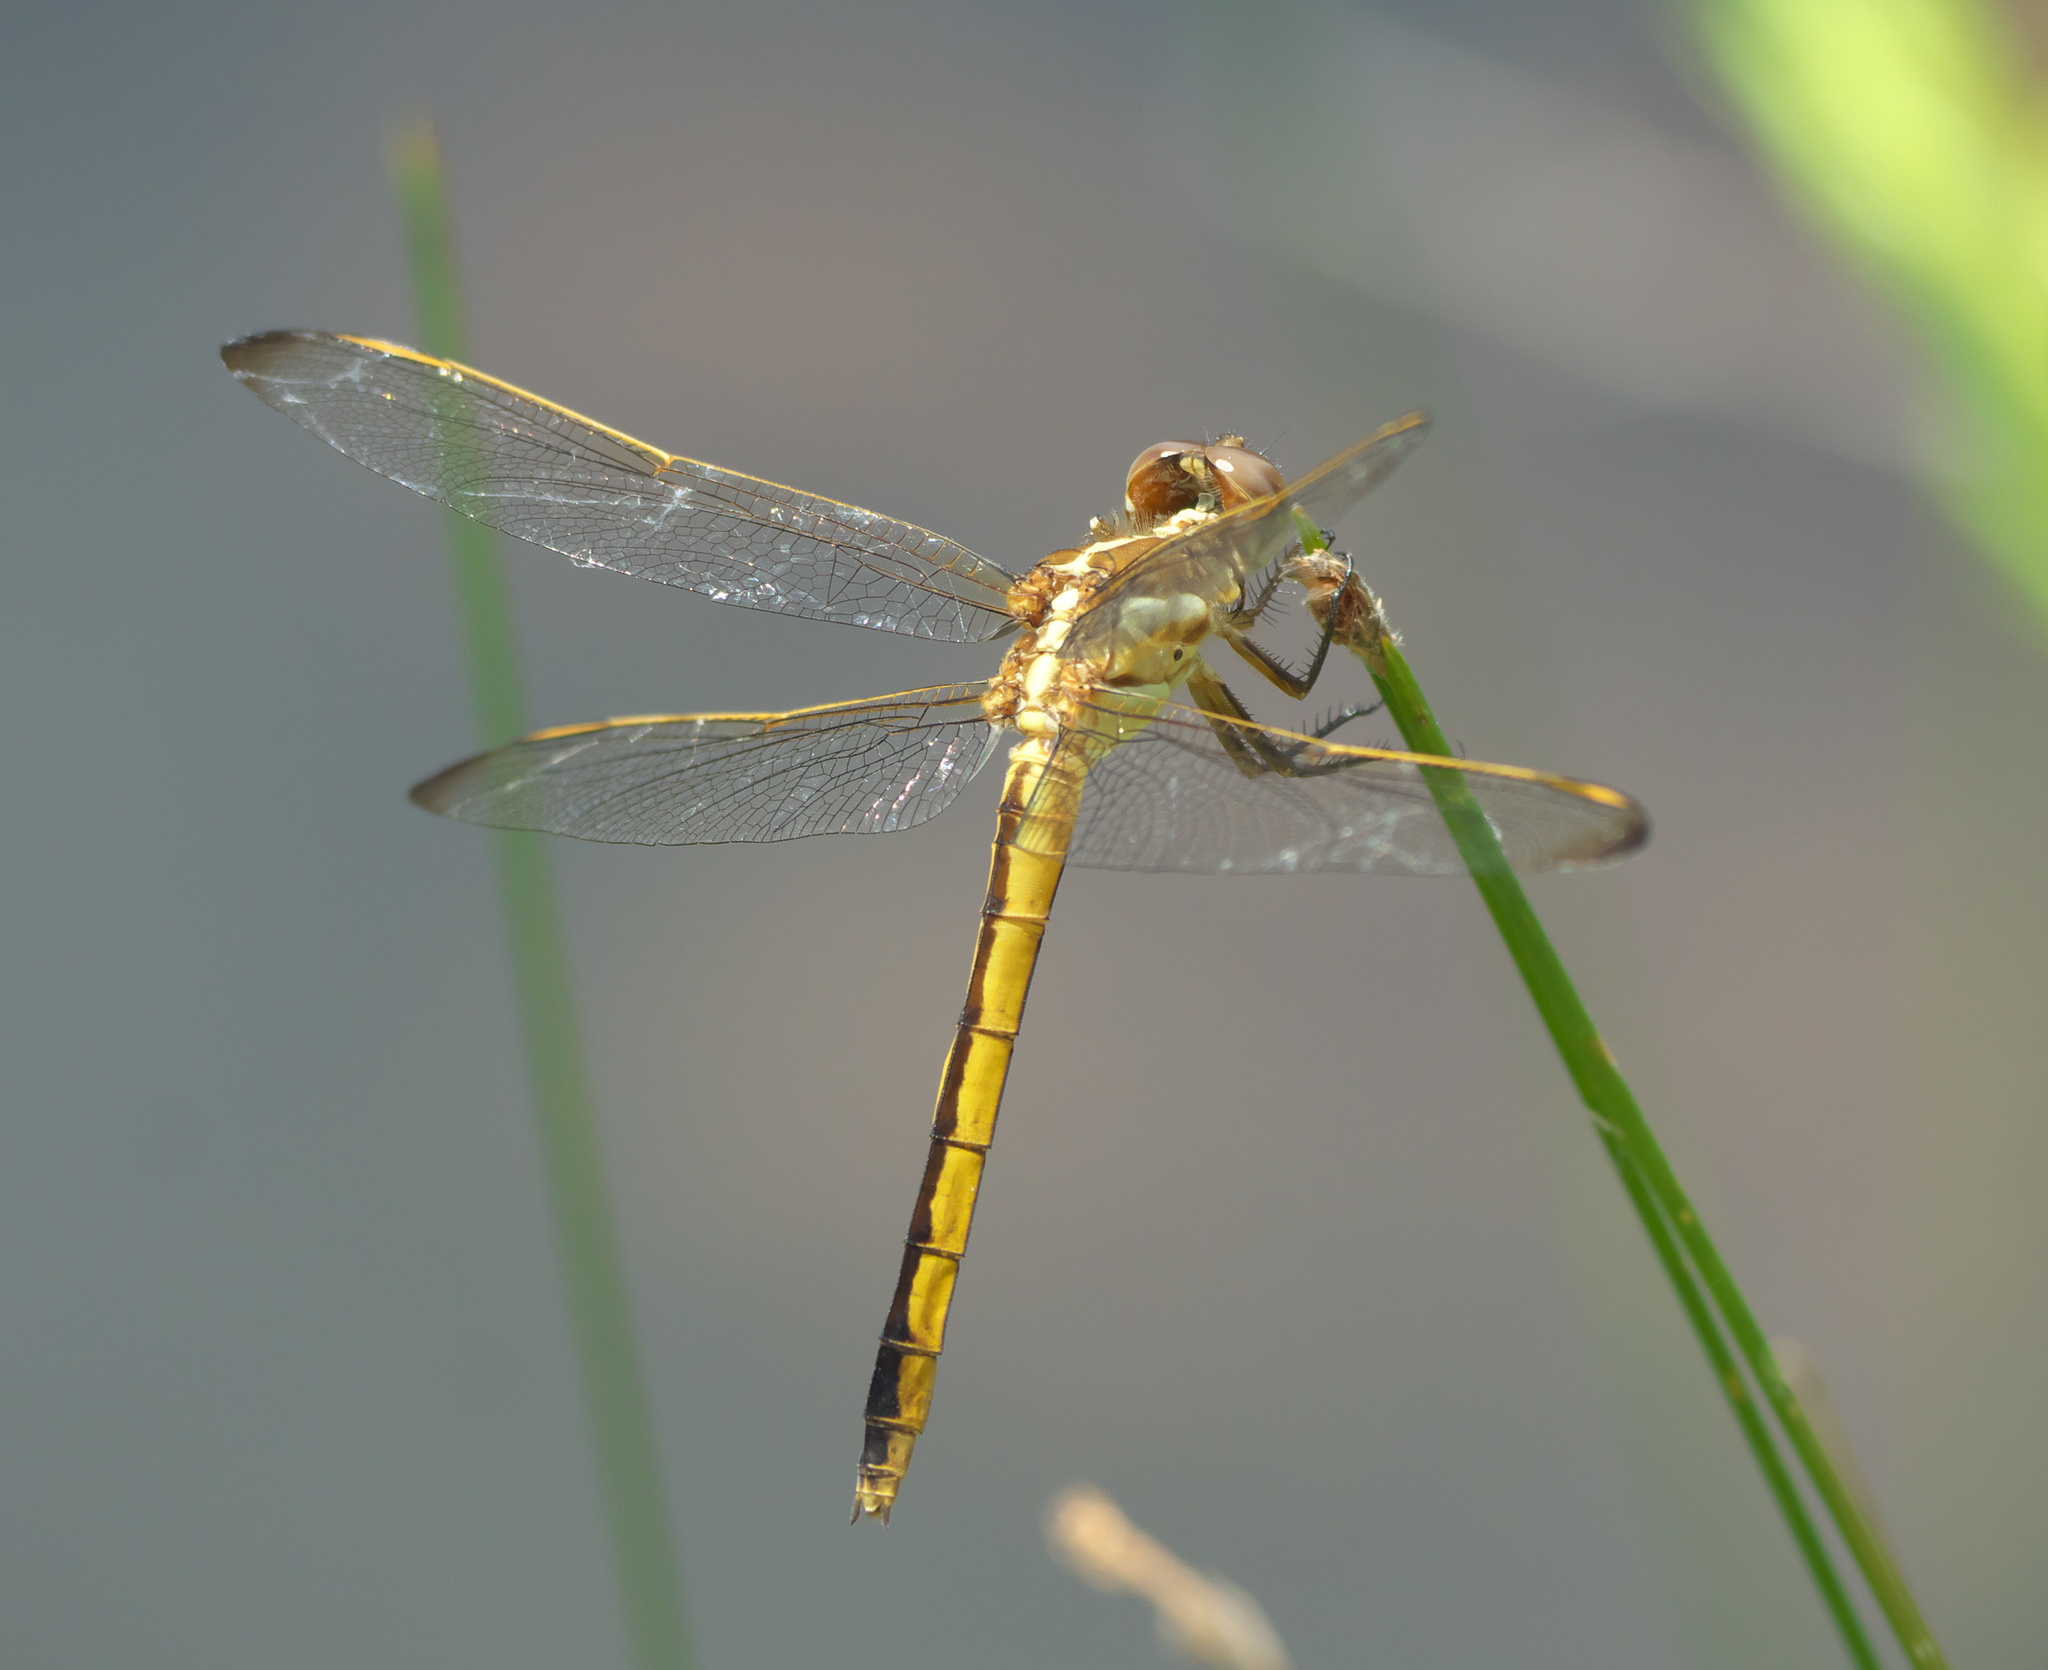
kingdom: Animalia
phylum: Arthropoda
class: Insecta
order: Odonata
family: Libellulidae
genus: Libellula
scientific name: Libellula auripennis
